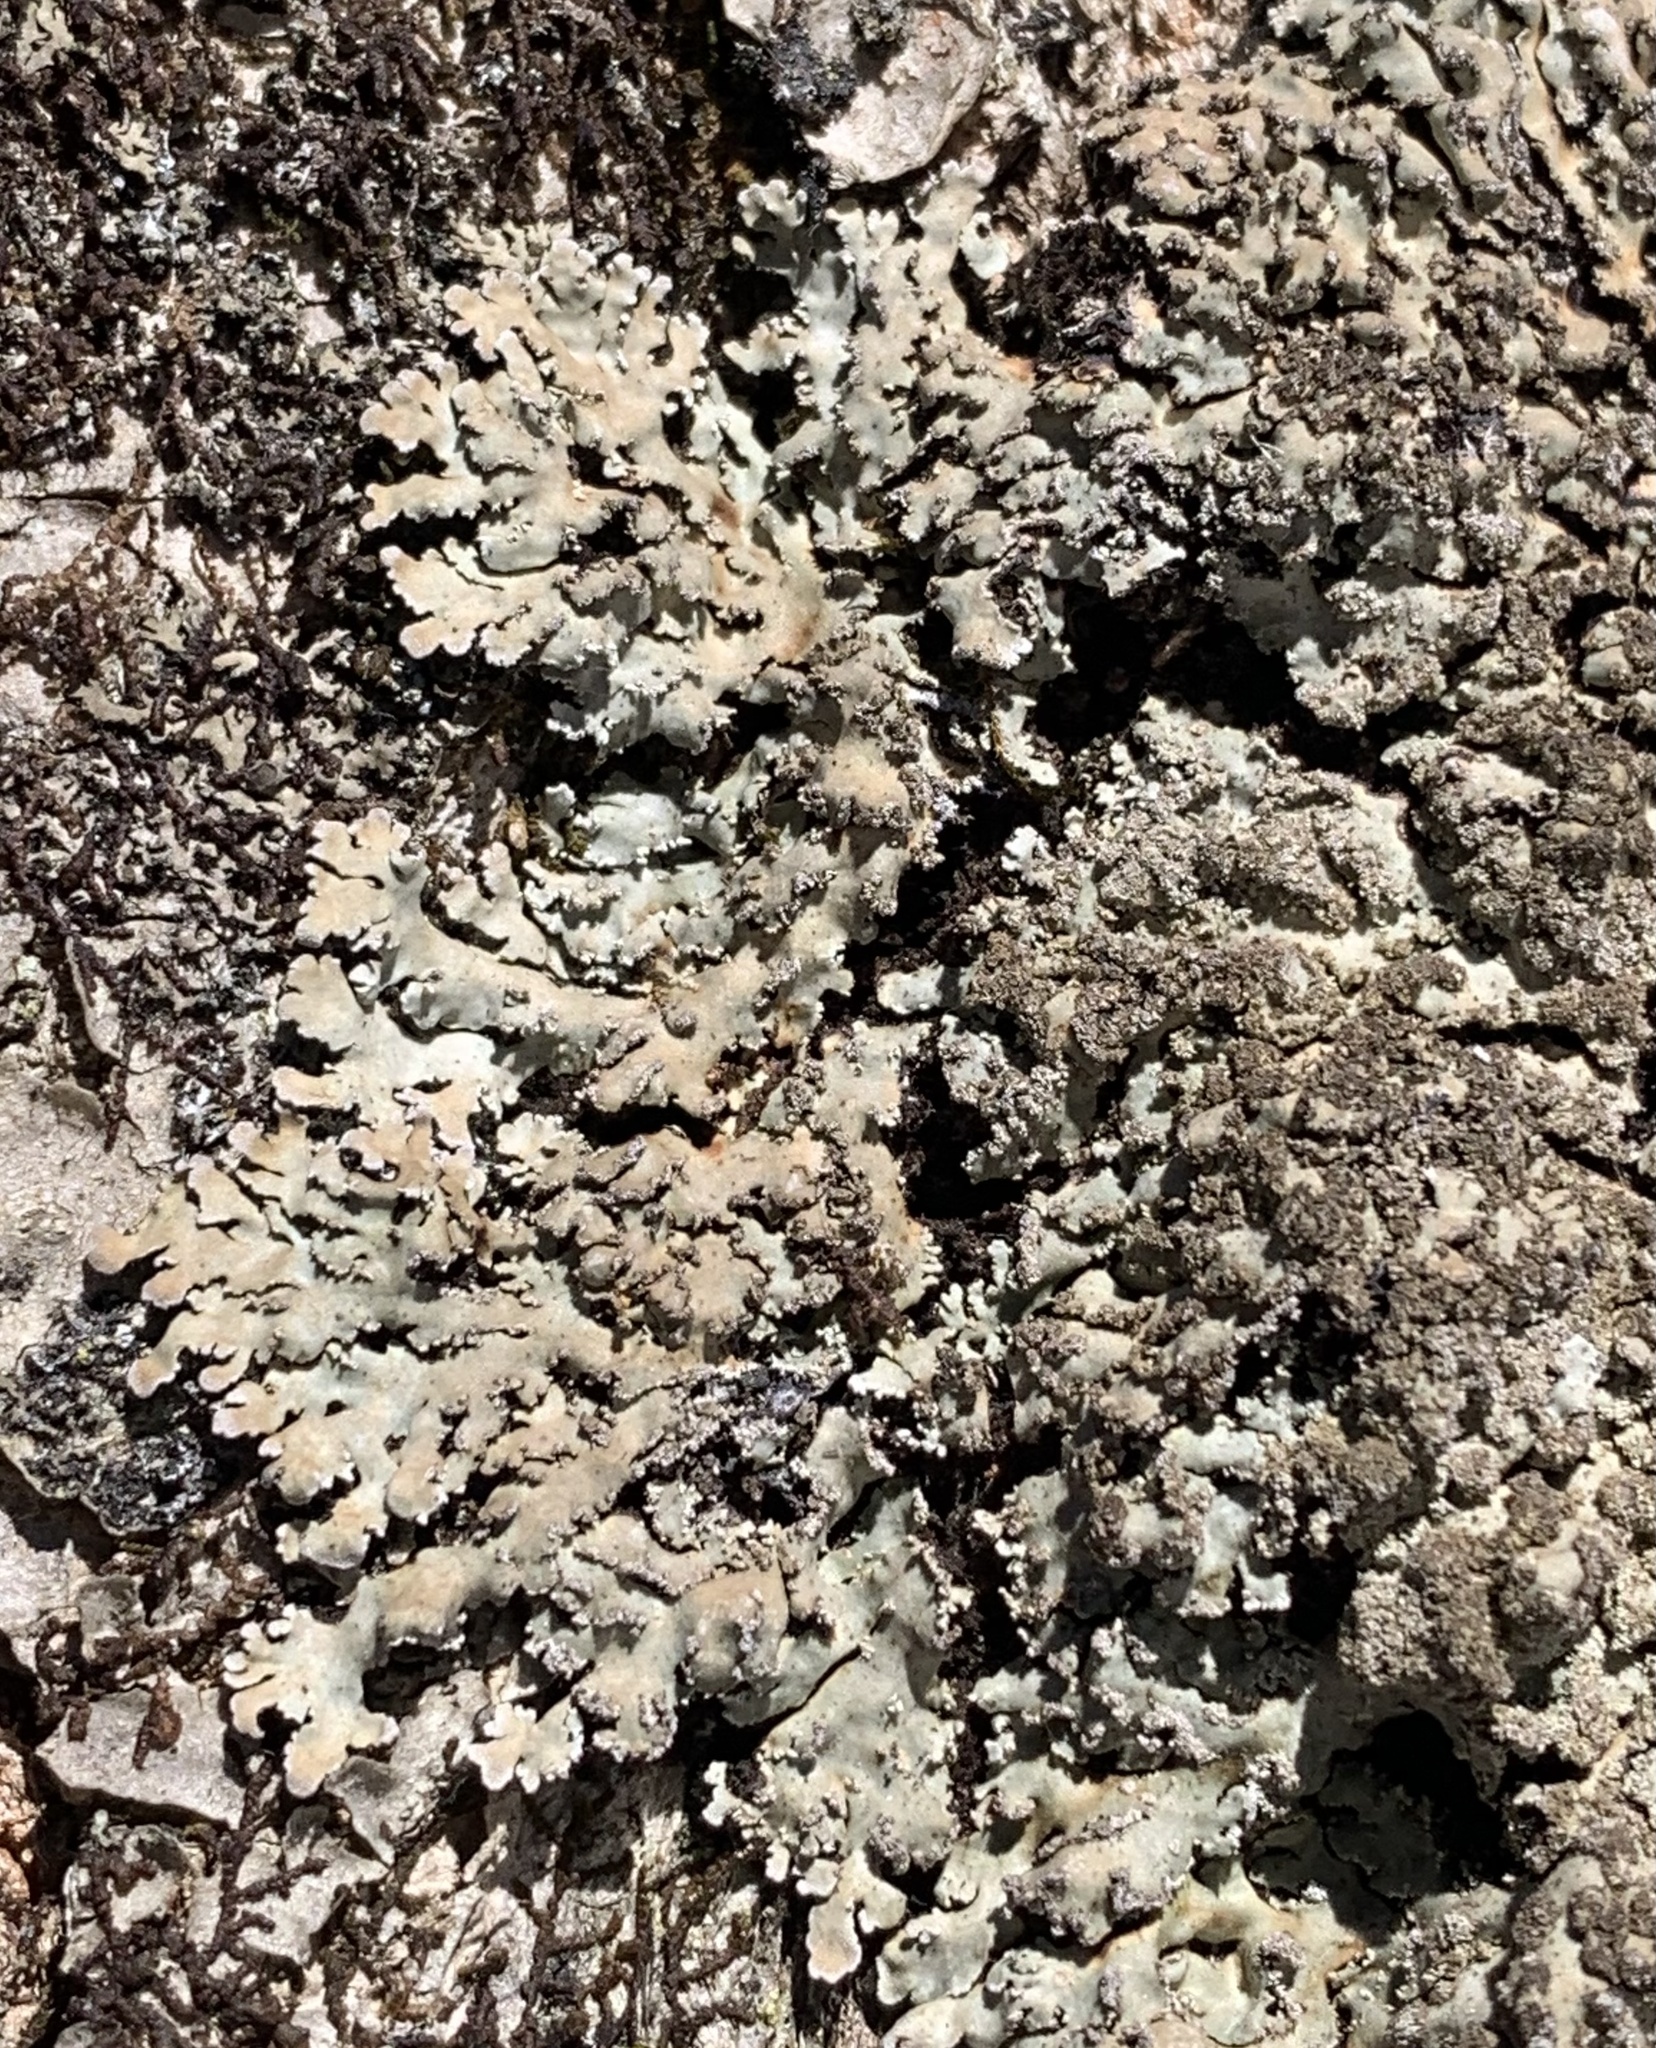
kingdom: Fungi
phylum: Ascomycota
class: Lecanoromycetes
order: Caliciales
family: Physciaceae
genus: Physconia
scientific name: Physconia grumosa
